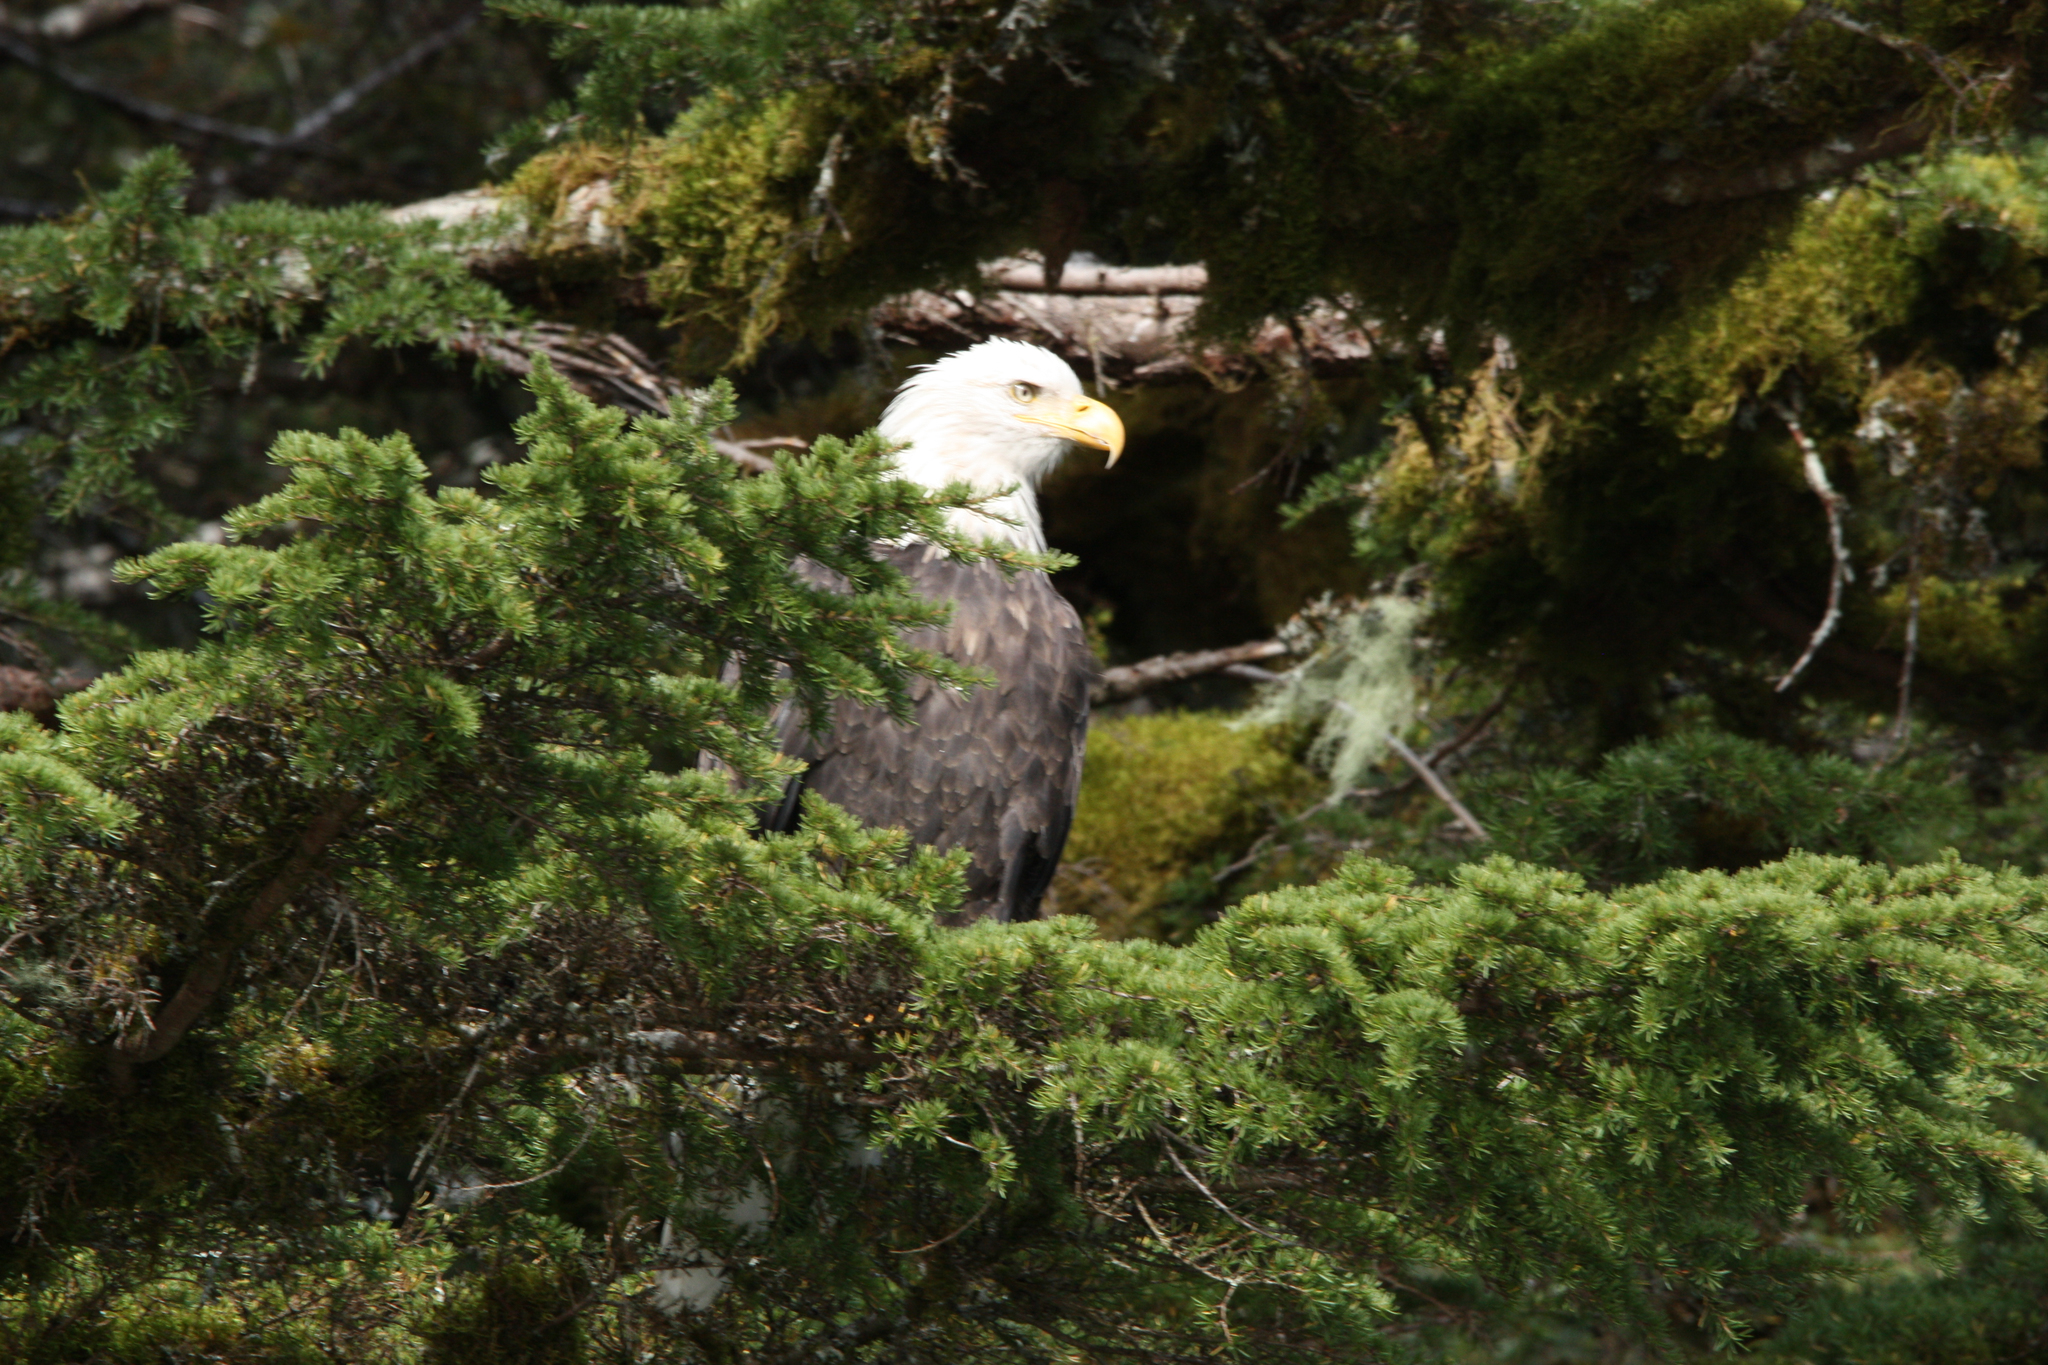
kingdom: Animalia
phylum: Chordata
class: Aves
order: Accipitriformes
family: Accipitridae
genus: Haliaeetus
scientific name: Haliaeetus leucocephalus
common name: Bald eagle
